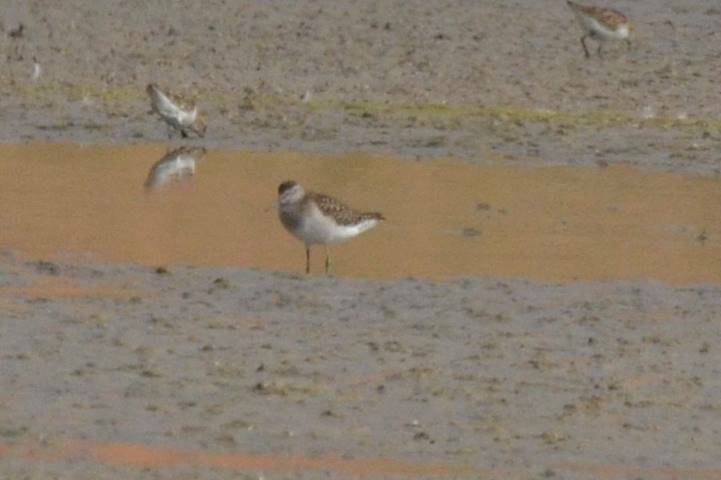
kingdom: Animalia
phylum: Chordata
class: Aves
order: Charadriiformes
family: Scolopacidae
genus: Tringa
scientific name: Tringa glareola
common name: Wood sandpiper
